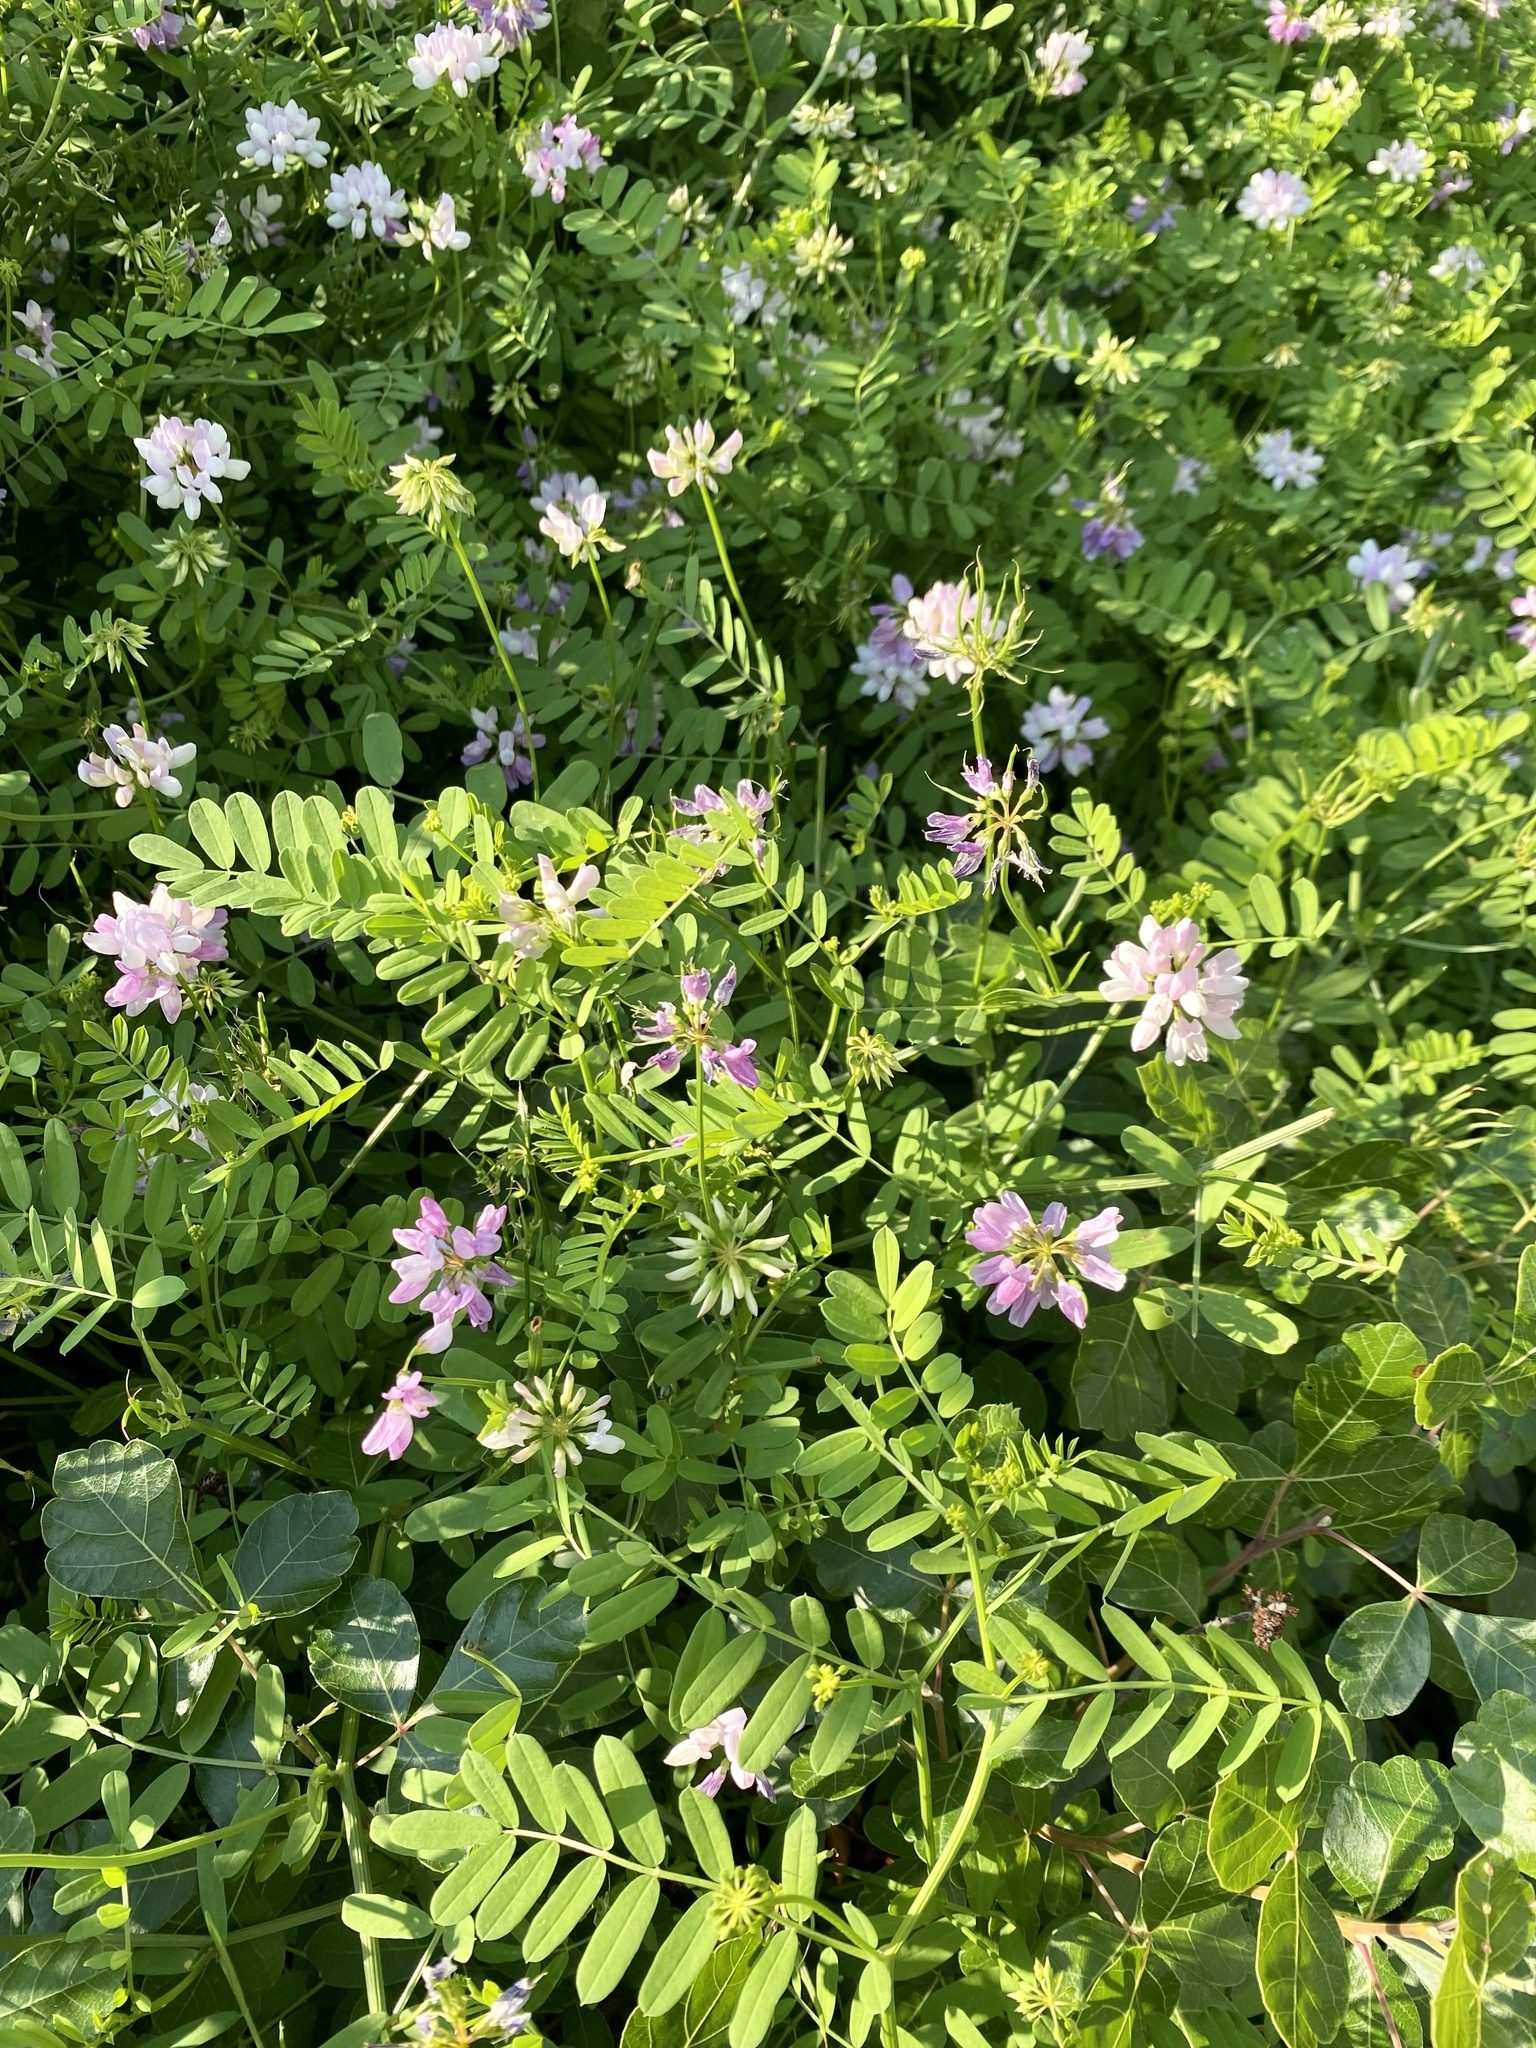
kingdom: Plantae
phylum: Tracheophyta
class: Magnoliopsida
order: Fabales
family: Fabaceae
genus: Coronilla
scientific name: Coronilla varia
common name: Crownvetch
